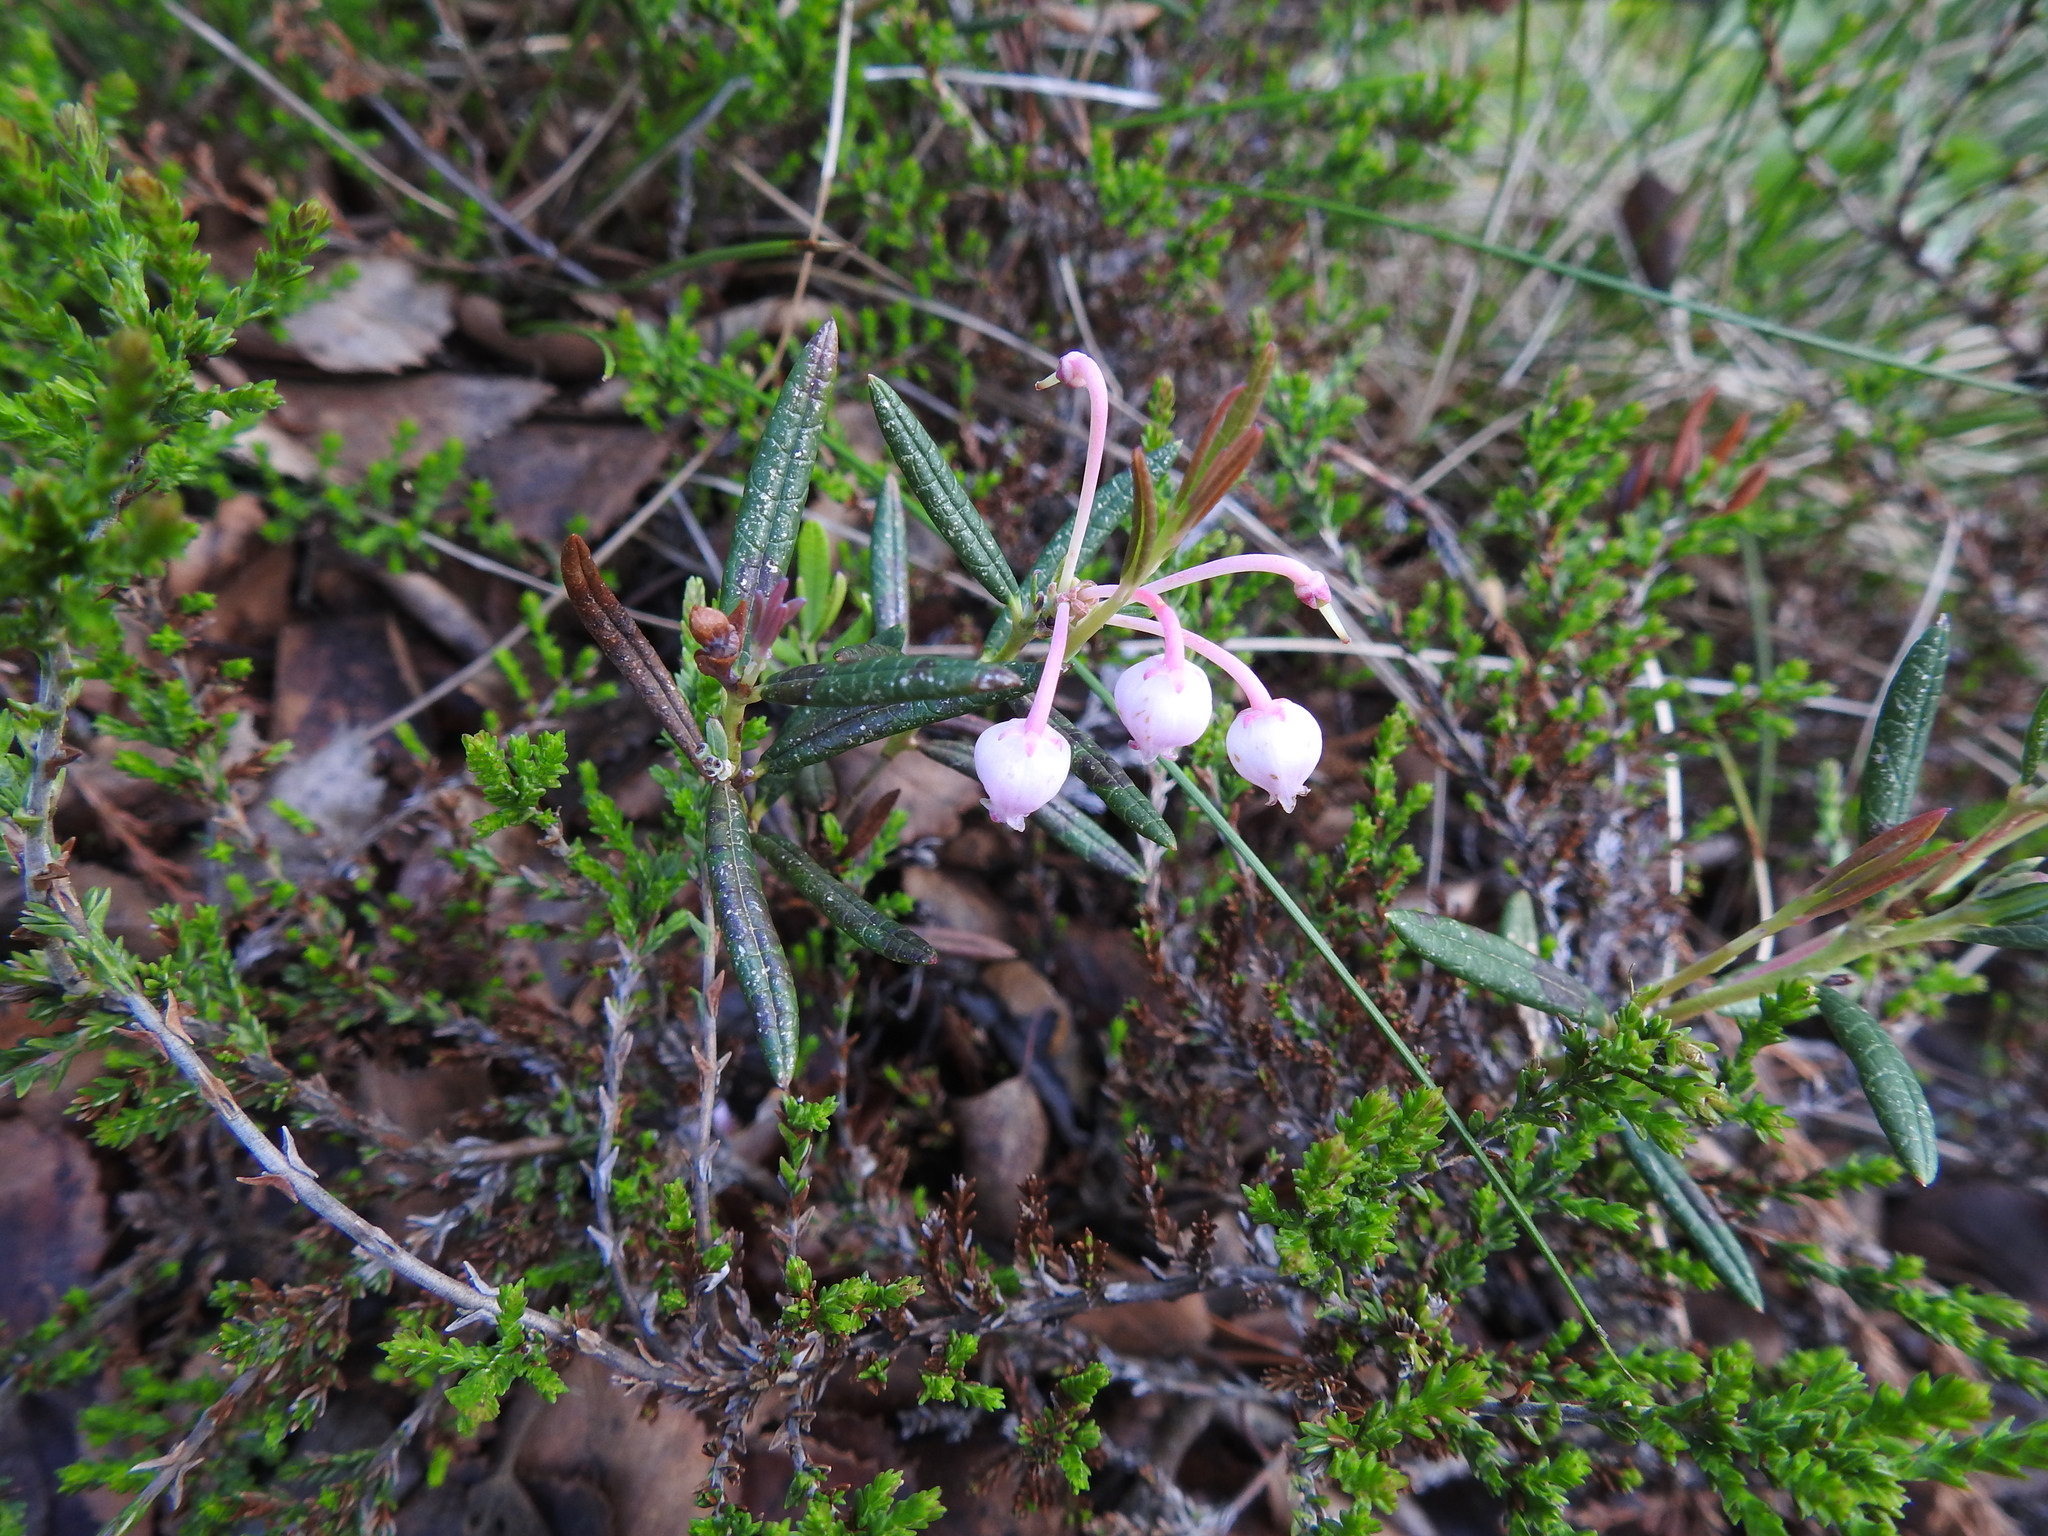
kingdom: Plantae
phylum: Tracheophyta
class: Magnoliopsida
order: Ericales
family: Ericaceae
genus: Andromeda
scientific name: Andromeda polifolia
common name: Bog-rosemary
